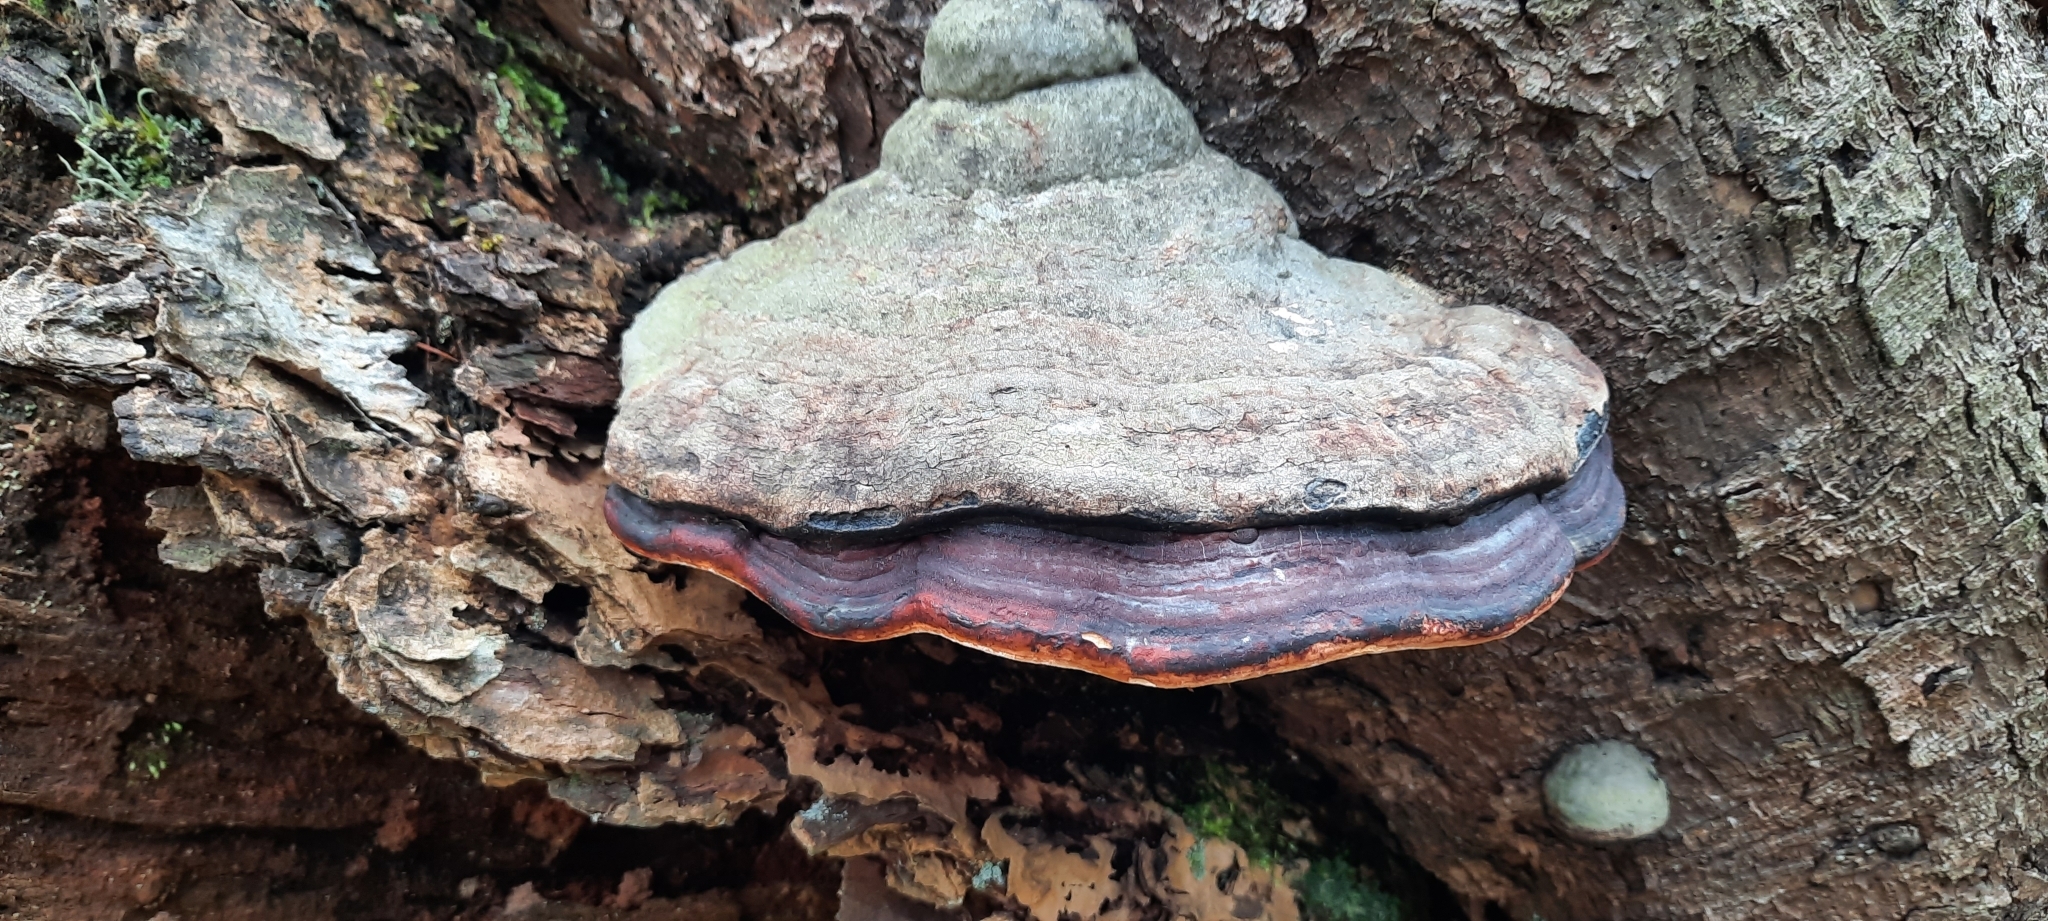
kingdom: Fungi
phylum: Basidiomycota
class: Agaricomycetes
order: Polyporales
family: Fomitopsidaceae
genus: Fomitopsis
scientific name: Fomitopsis pinicola
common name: Red-belted bracket
